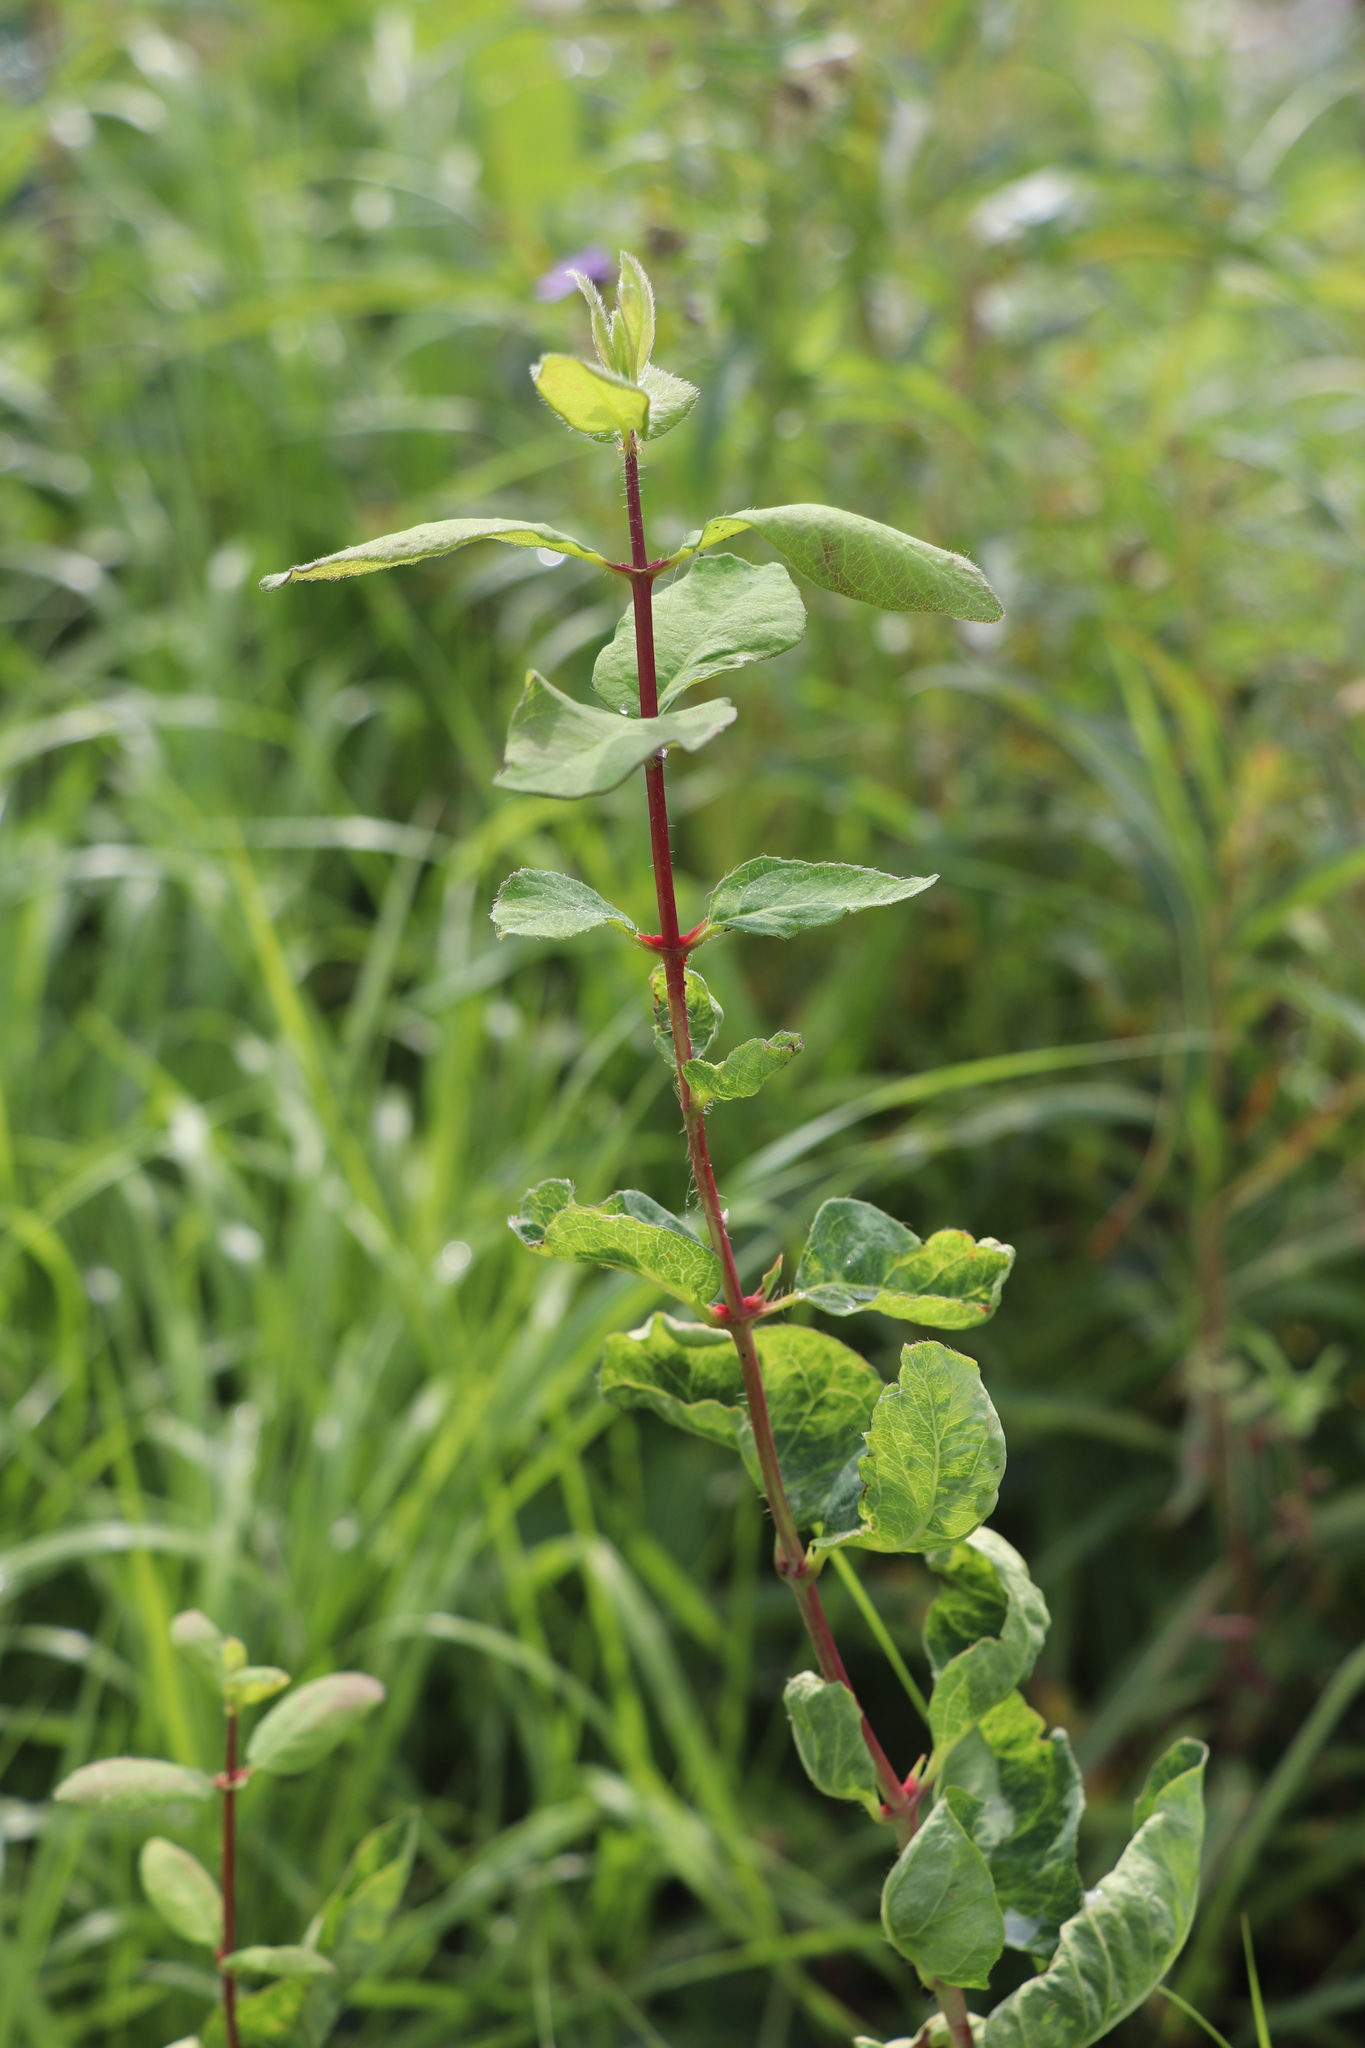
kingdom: Plantae
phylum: Tracheophyta
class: Magnoliopsida
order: Dipsacales
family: Caprifoliaceae
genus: Lonicera
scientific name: Lonicera caerulea
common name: Blue honeysuckle
